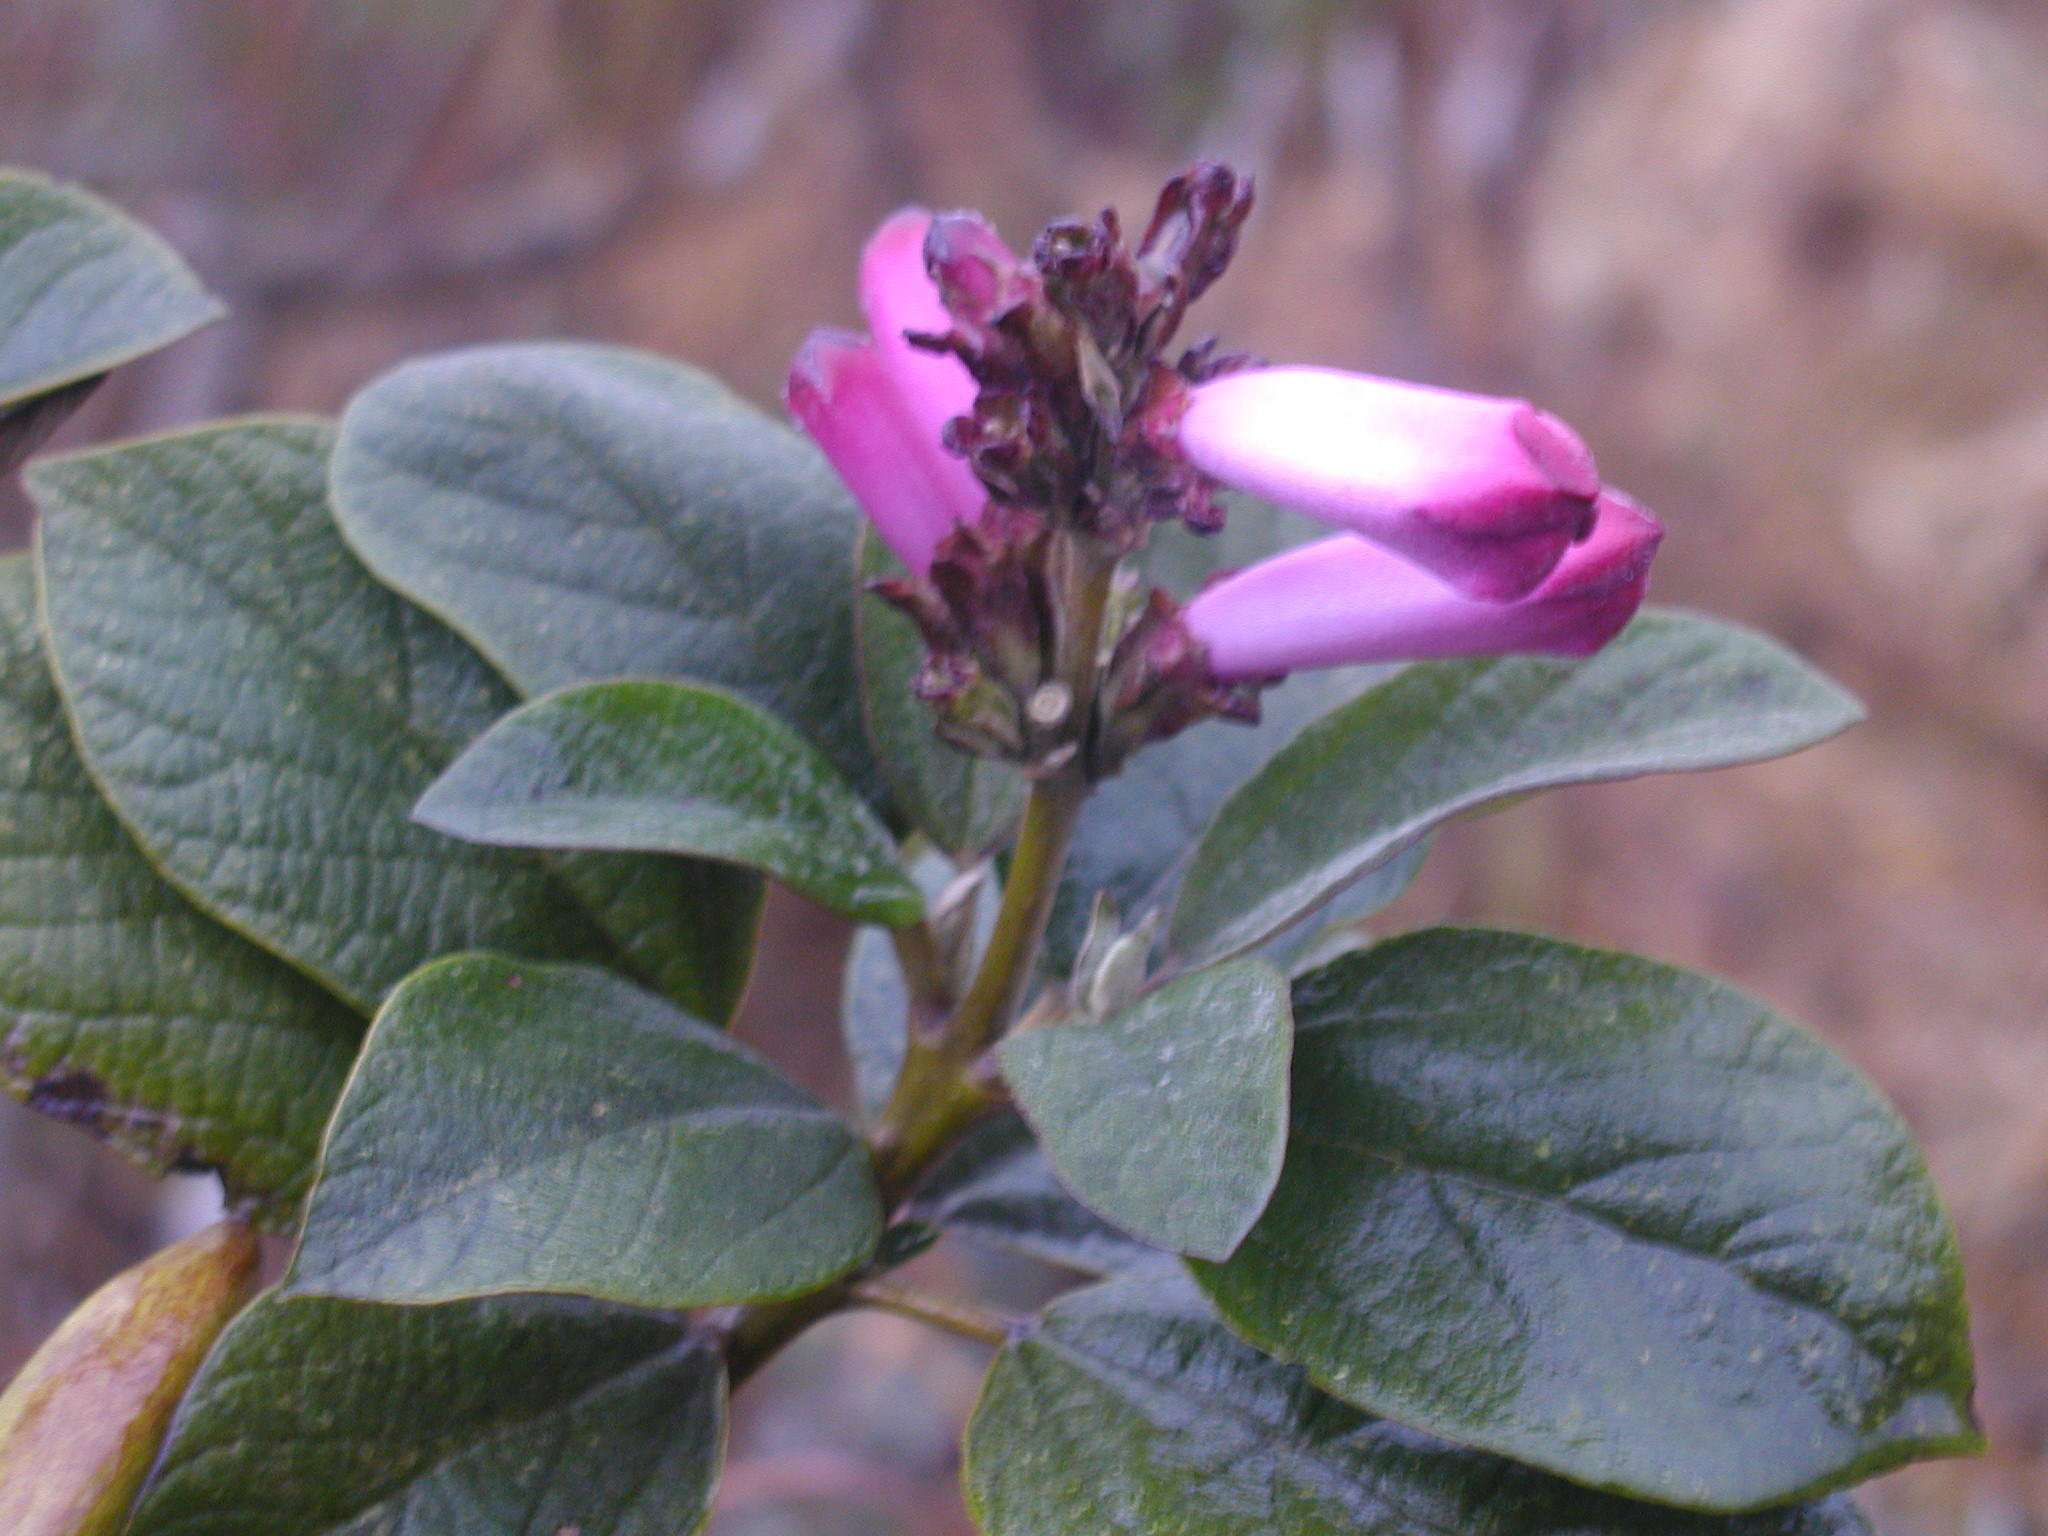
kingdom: Plantae
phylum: Tracheophyta
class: Magnoliopsida
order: Lamiales
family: Bignoniaceae
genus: Delostoma
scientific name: Delostoma integrifolium
